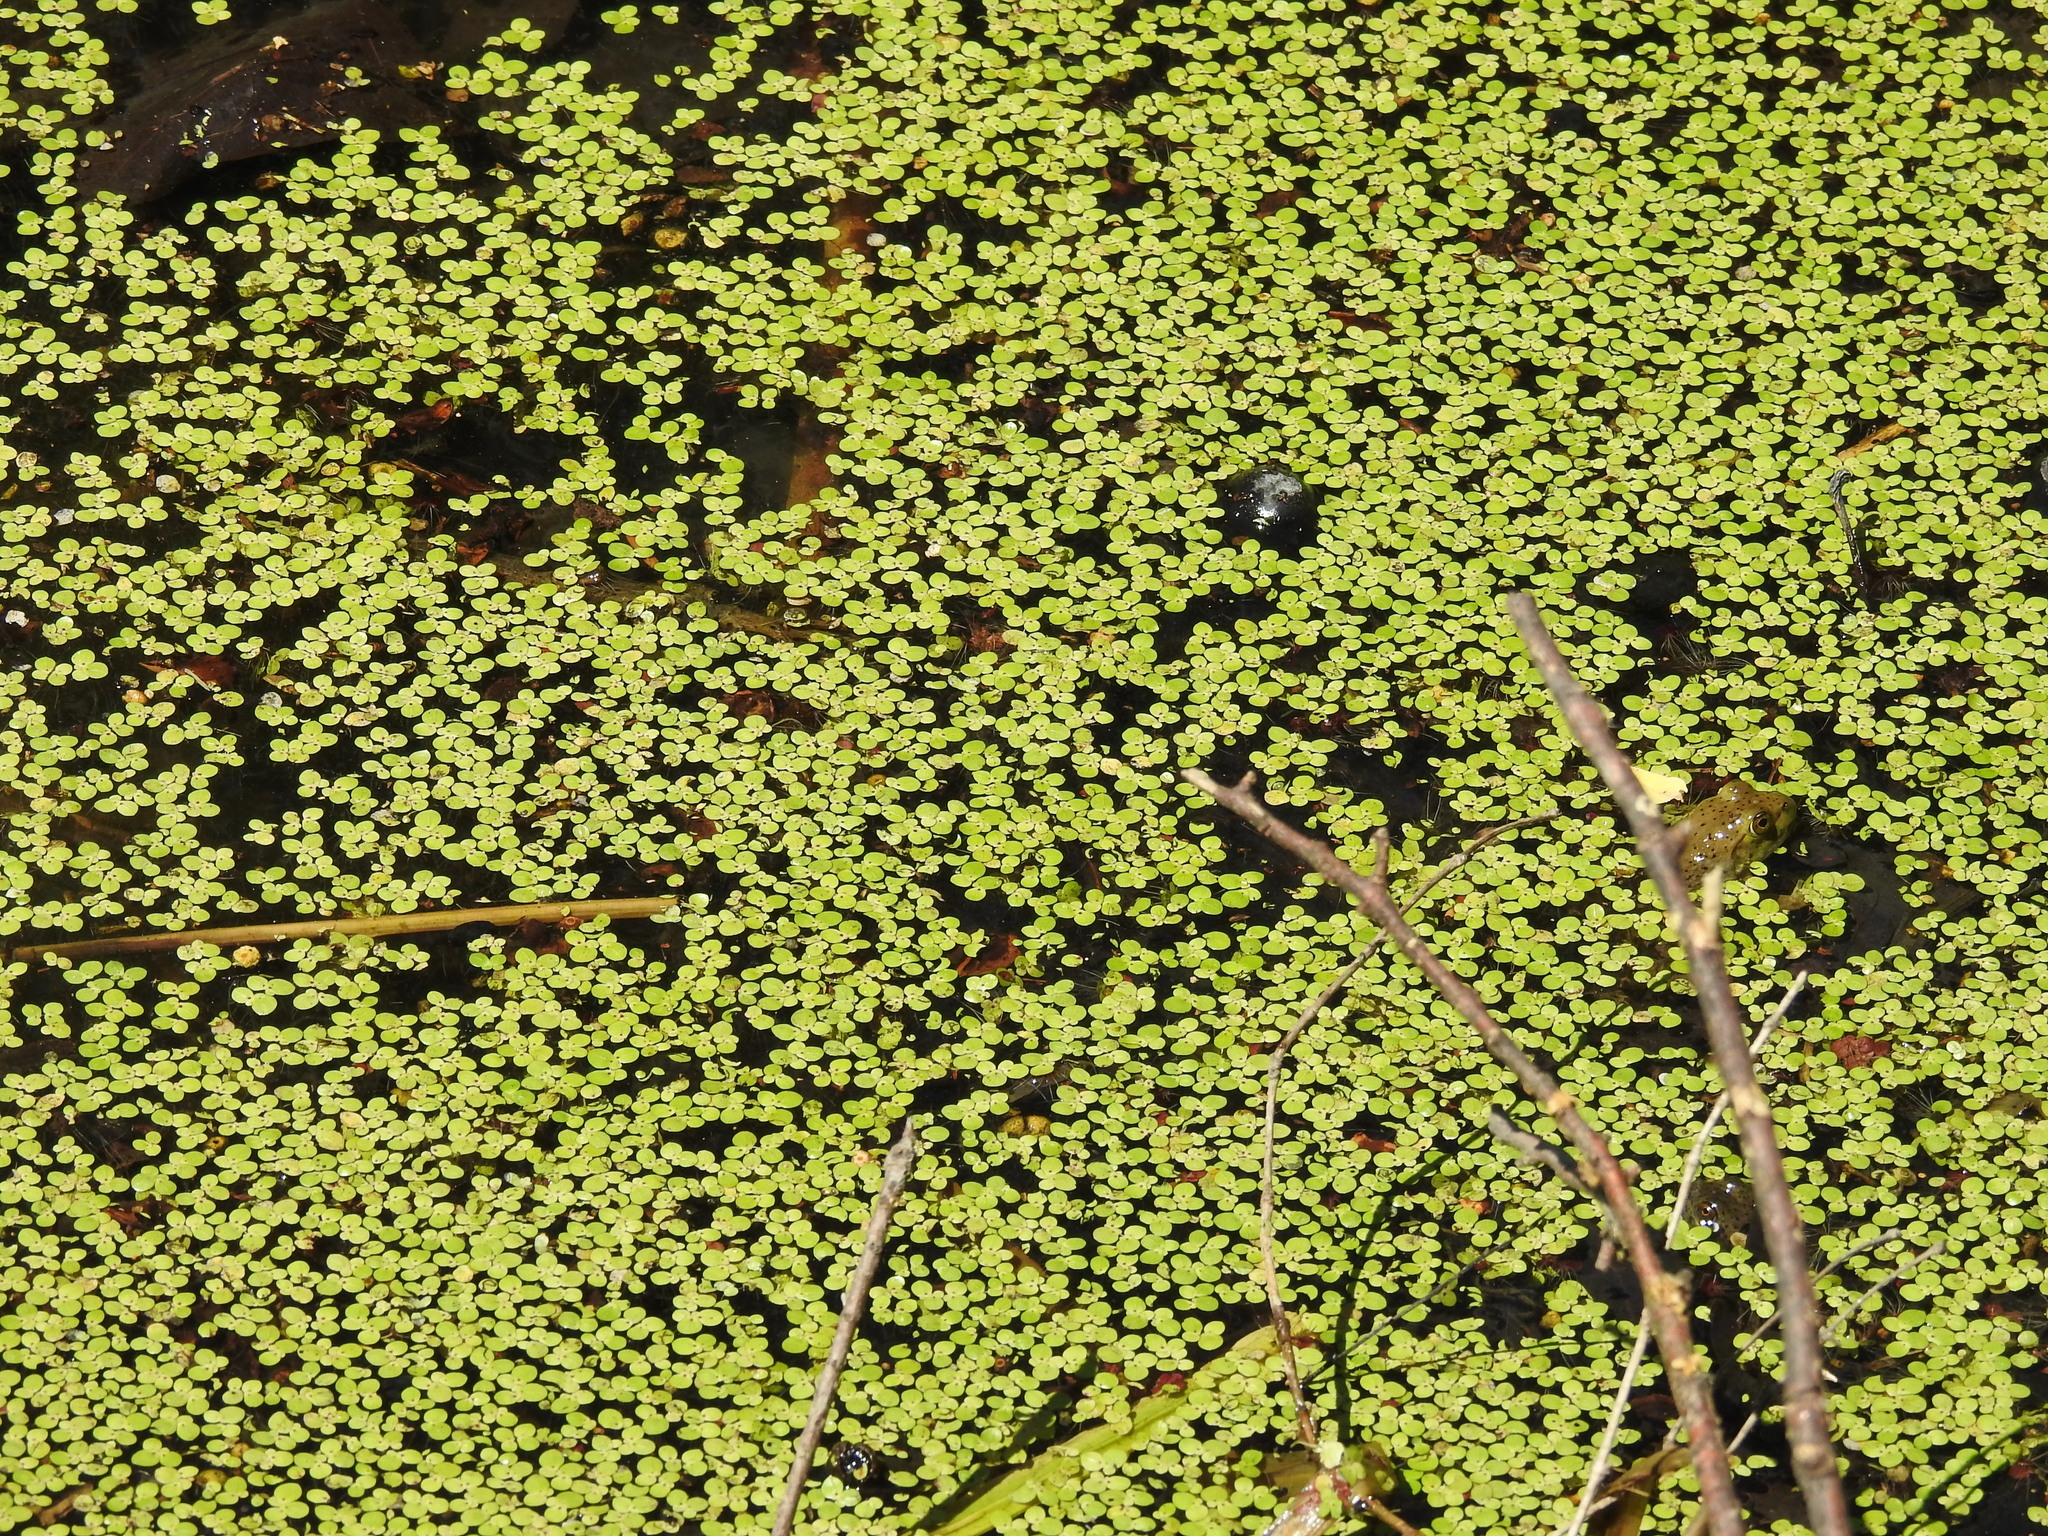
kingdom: Plantae
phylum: Tracheophyta
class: Liliopsida
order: Alismatales
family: Araceae
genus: Lemna
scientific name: Lemna minor
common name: Common duckweed
